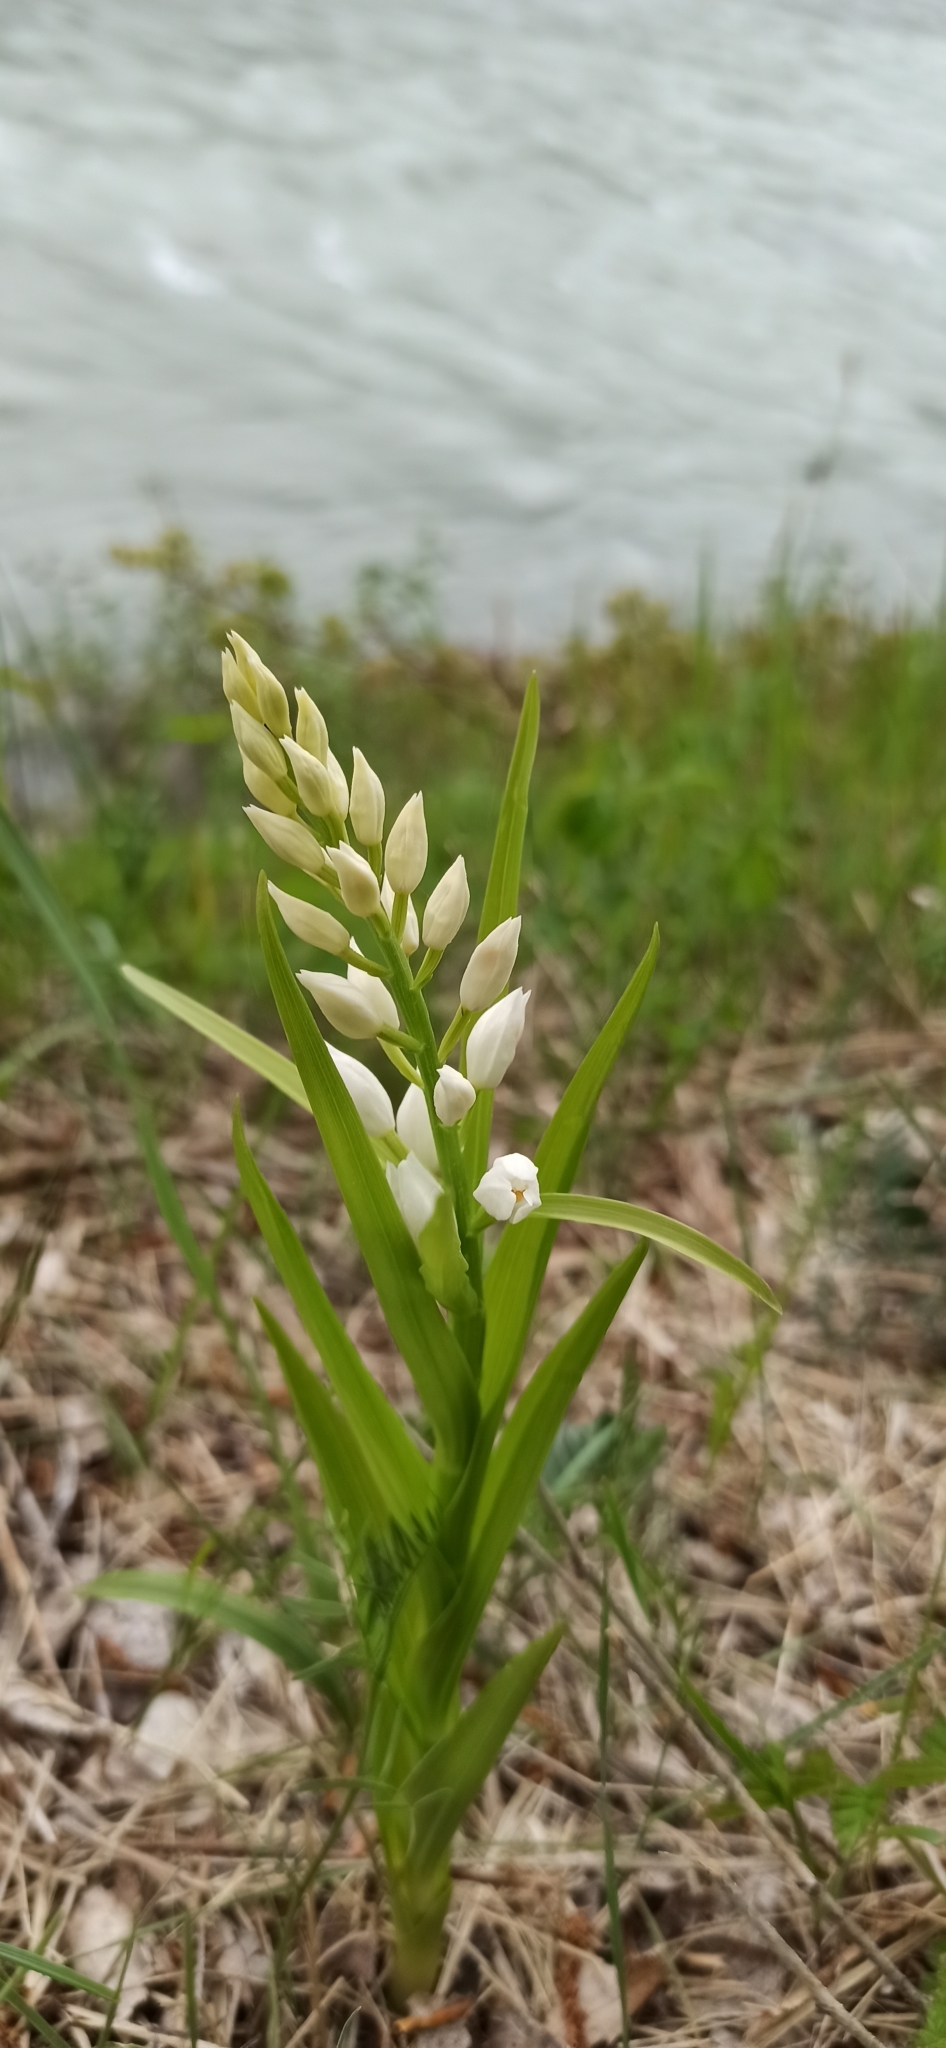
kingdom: Plantae
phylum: Tracheophyta
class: Liliopsida
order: Asparagales
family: Orchidaceae
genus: Cephalanthera
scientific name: Cephalanthera longifolia
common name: Narrow-leaved helleborine
